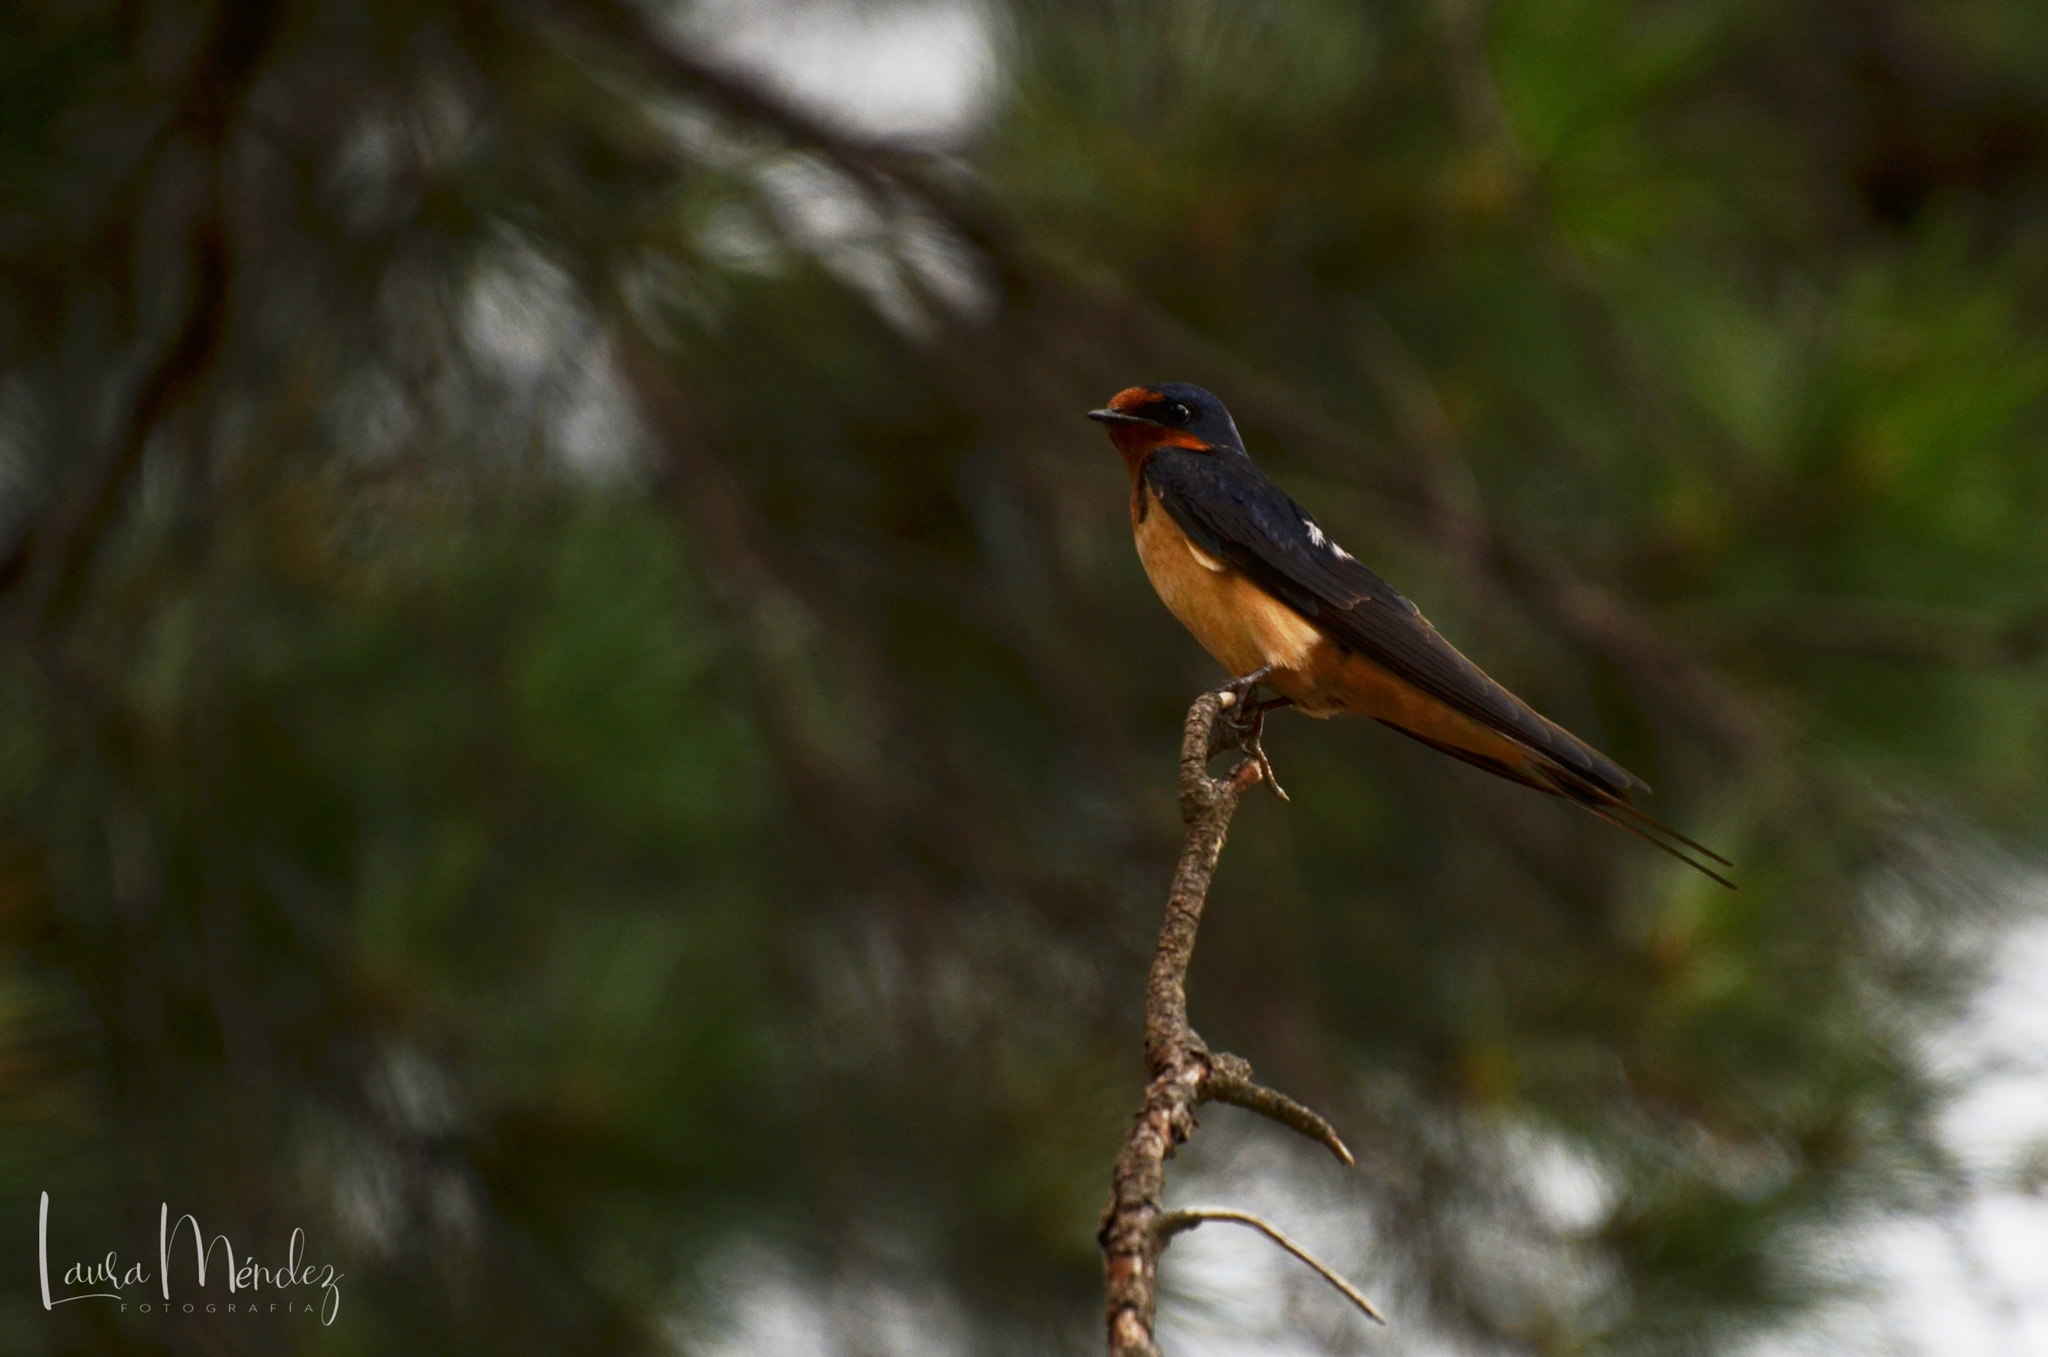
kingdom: Animalia
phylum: Chordata
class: Aves
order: Passeriformes
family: Hirundinidae
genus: Hirundo
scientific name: Hirundo rustica
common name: Barn swallow
